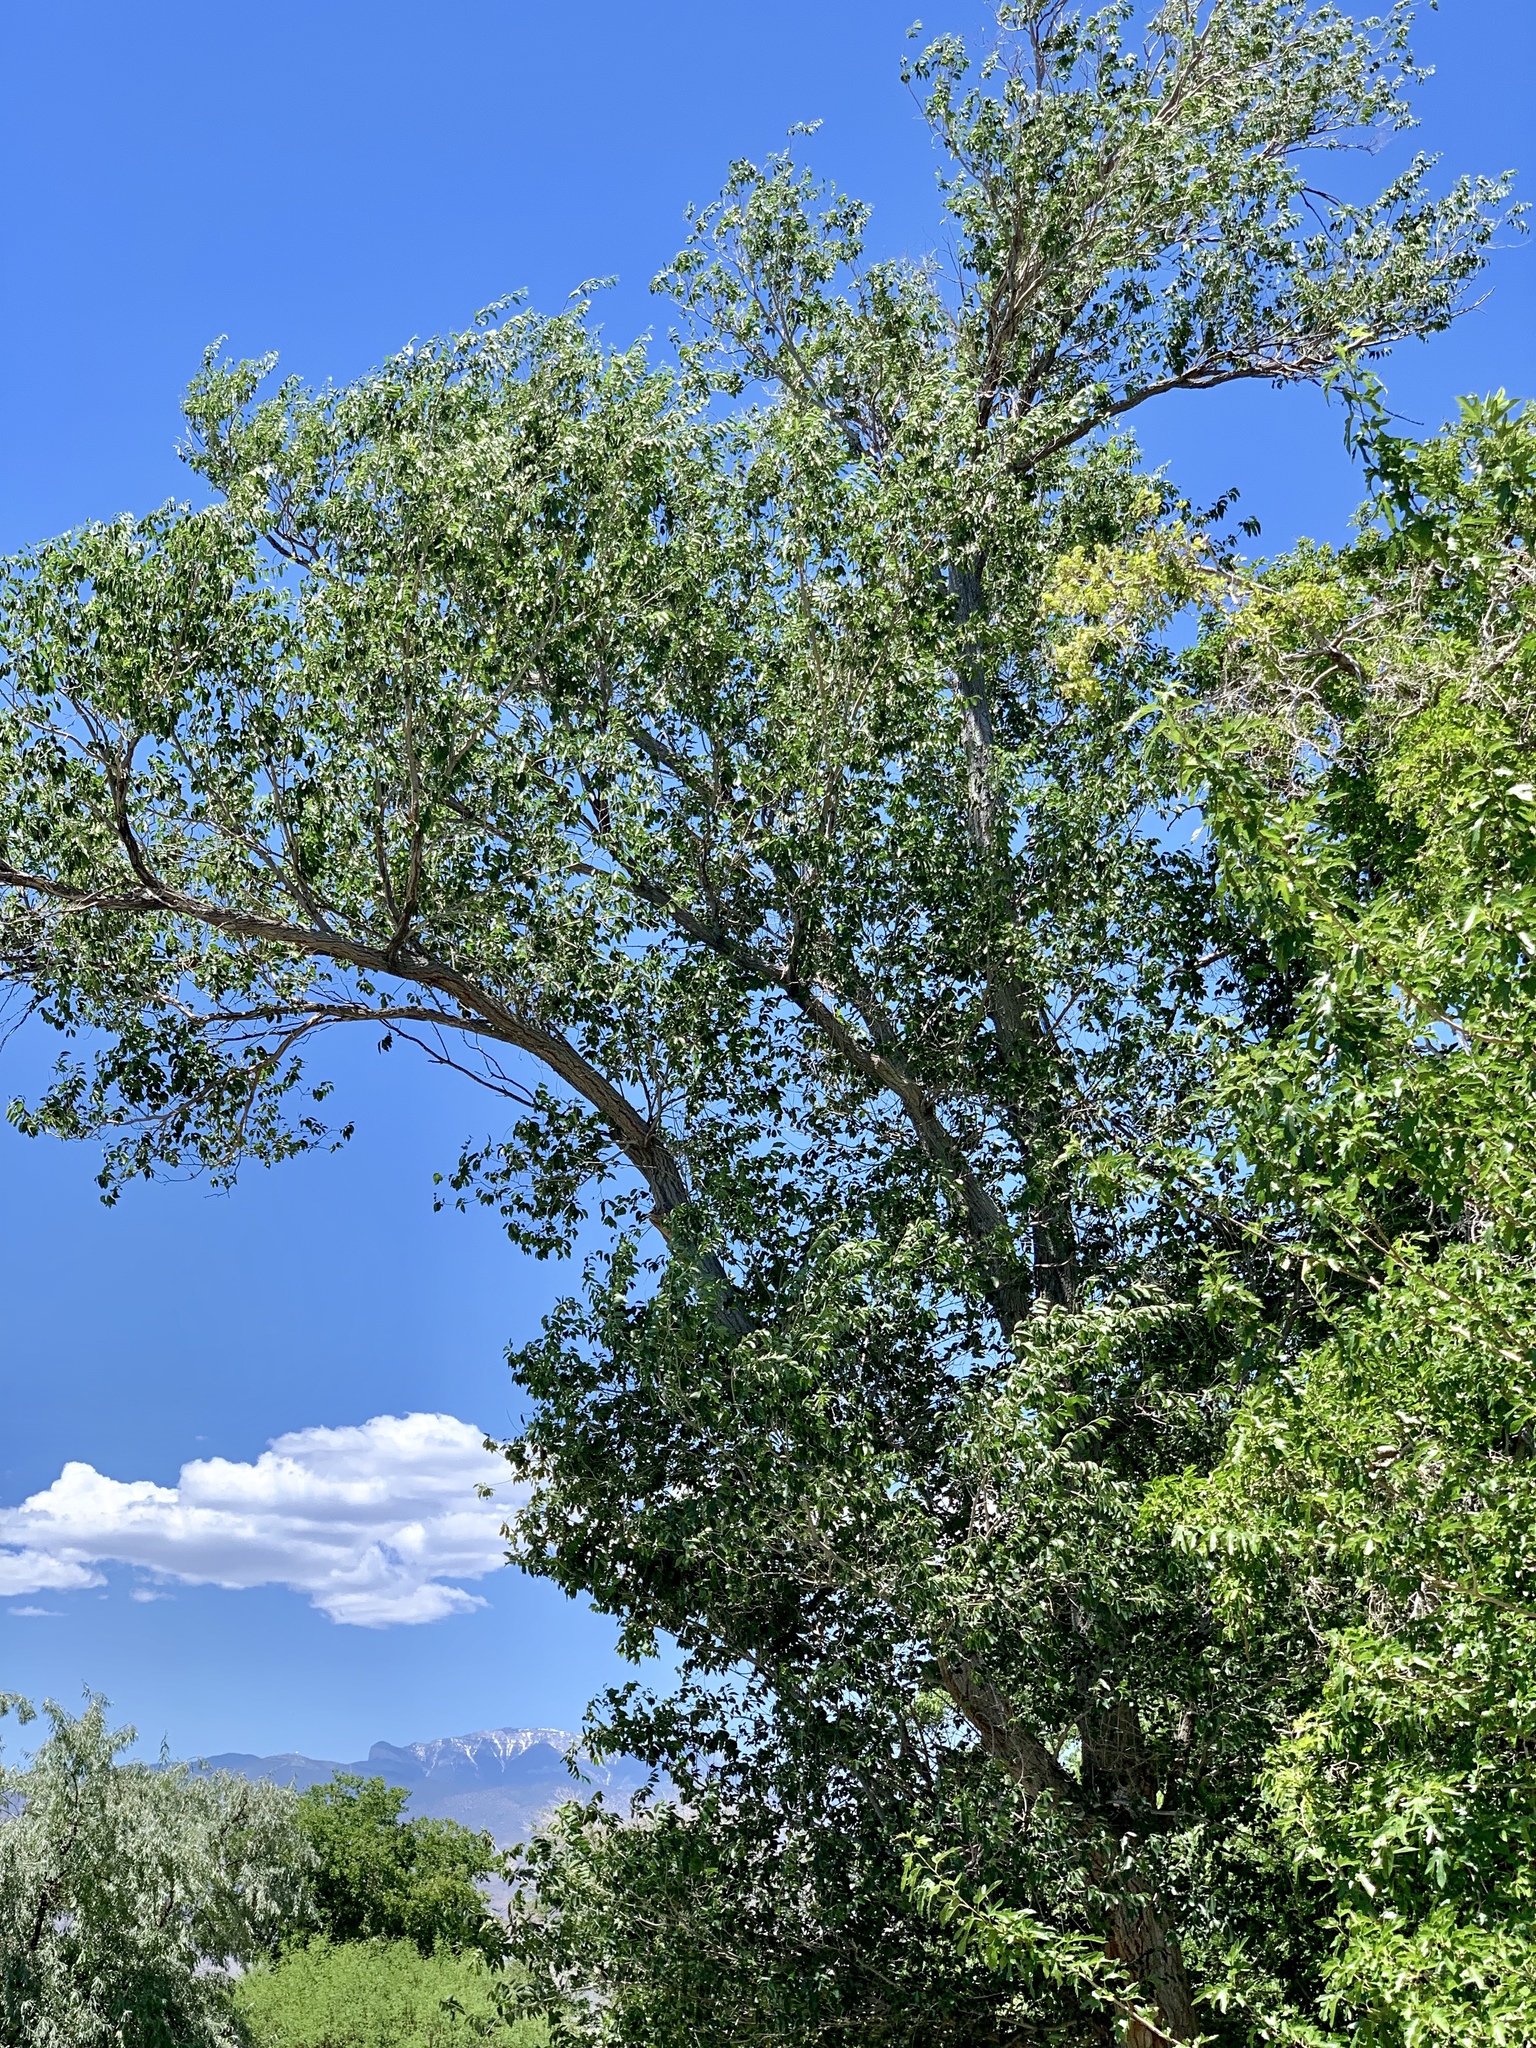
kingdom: Plantae
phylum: Tracheophyta
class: Magnoliopsida
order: Malpighiales
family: Salicaceae
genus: Populus
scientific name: Populus fremontii
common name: Fremont's cottonwood
